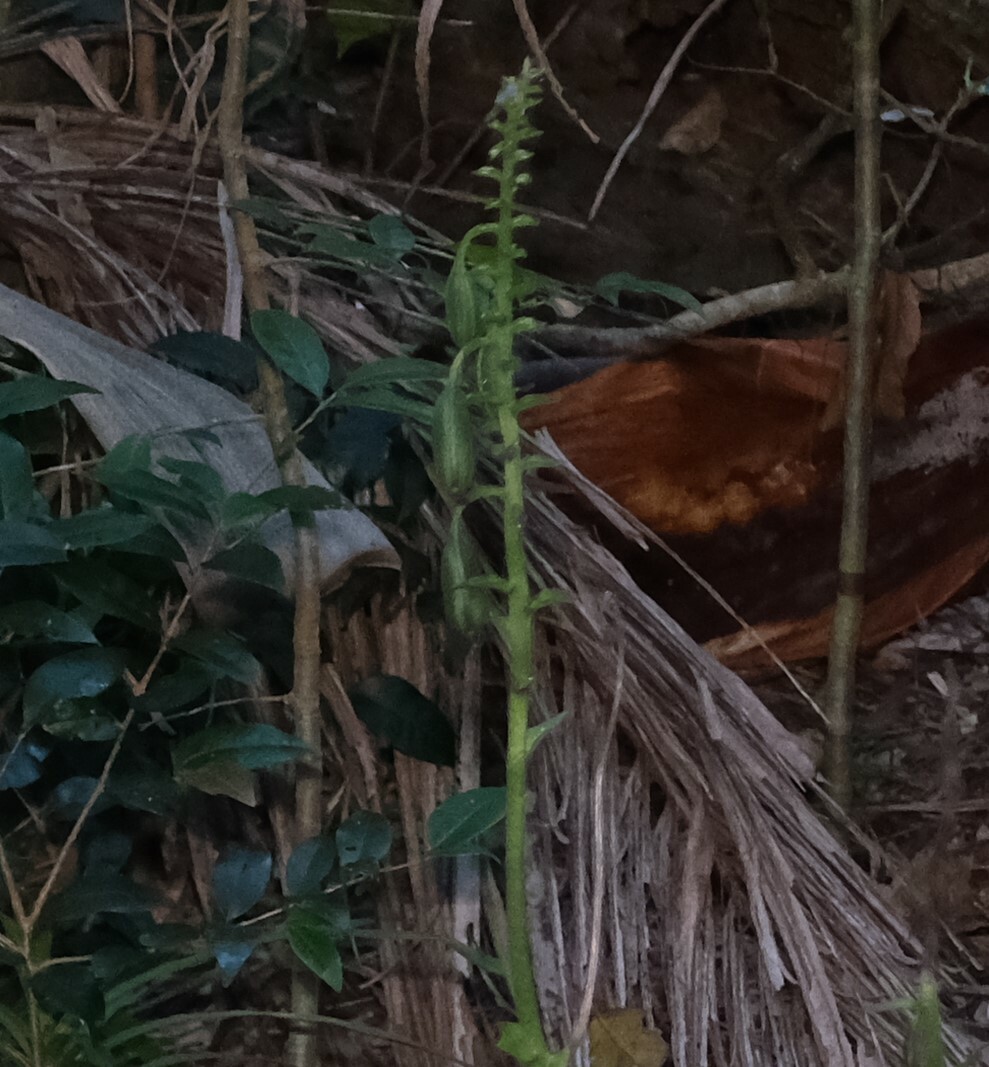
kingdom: Plantae
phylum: Tracheophyta
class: Liliopsida
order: Asparagales
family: Orchidaceae
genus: Calanthe
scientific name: Calanthe triplicata
